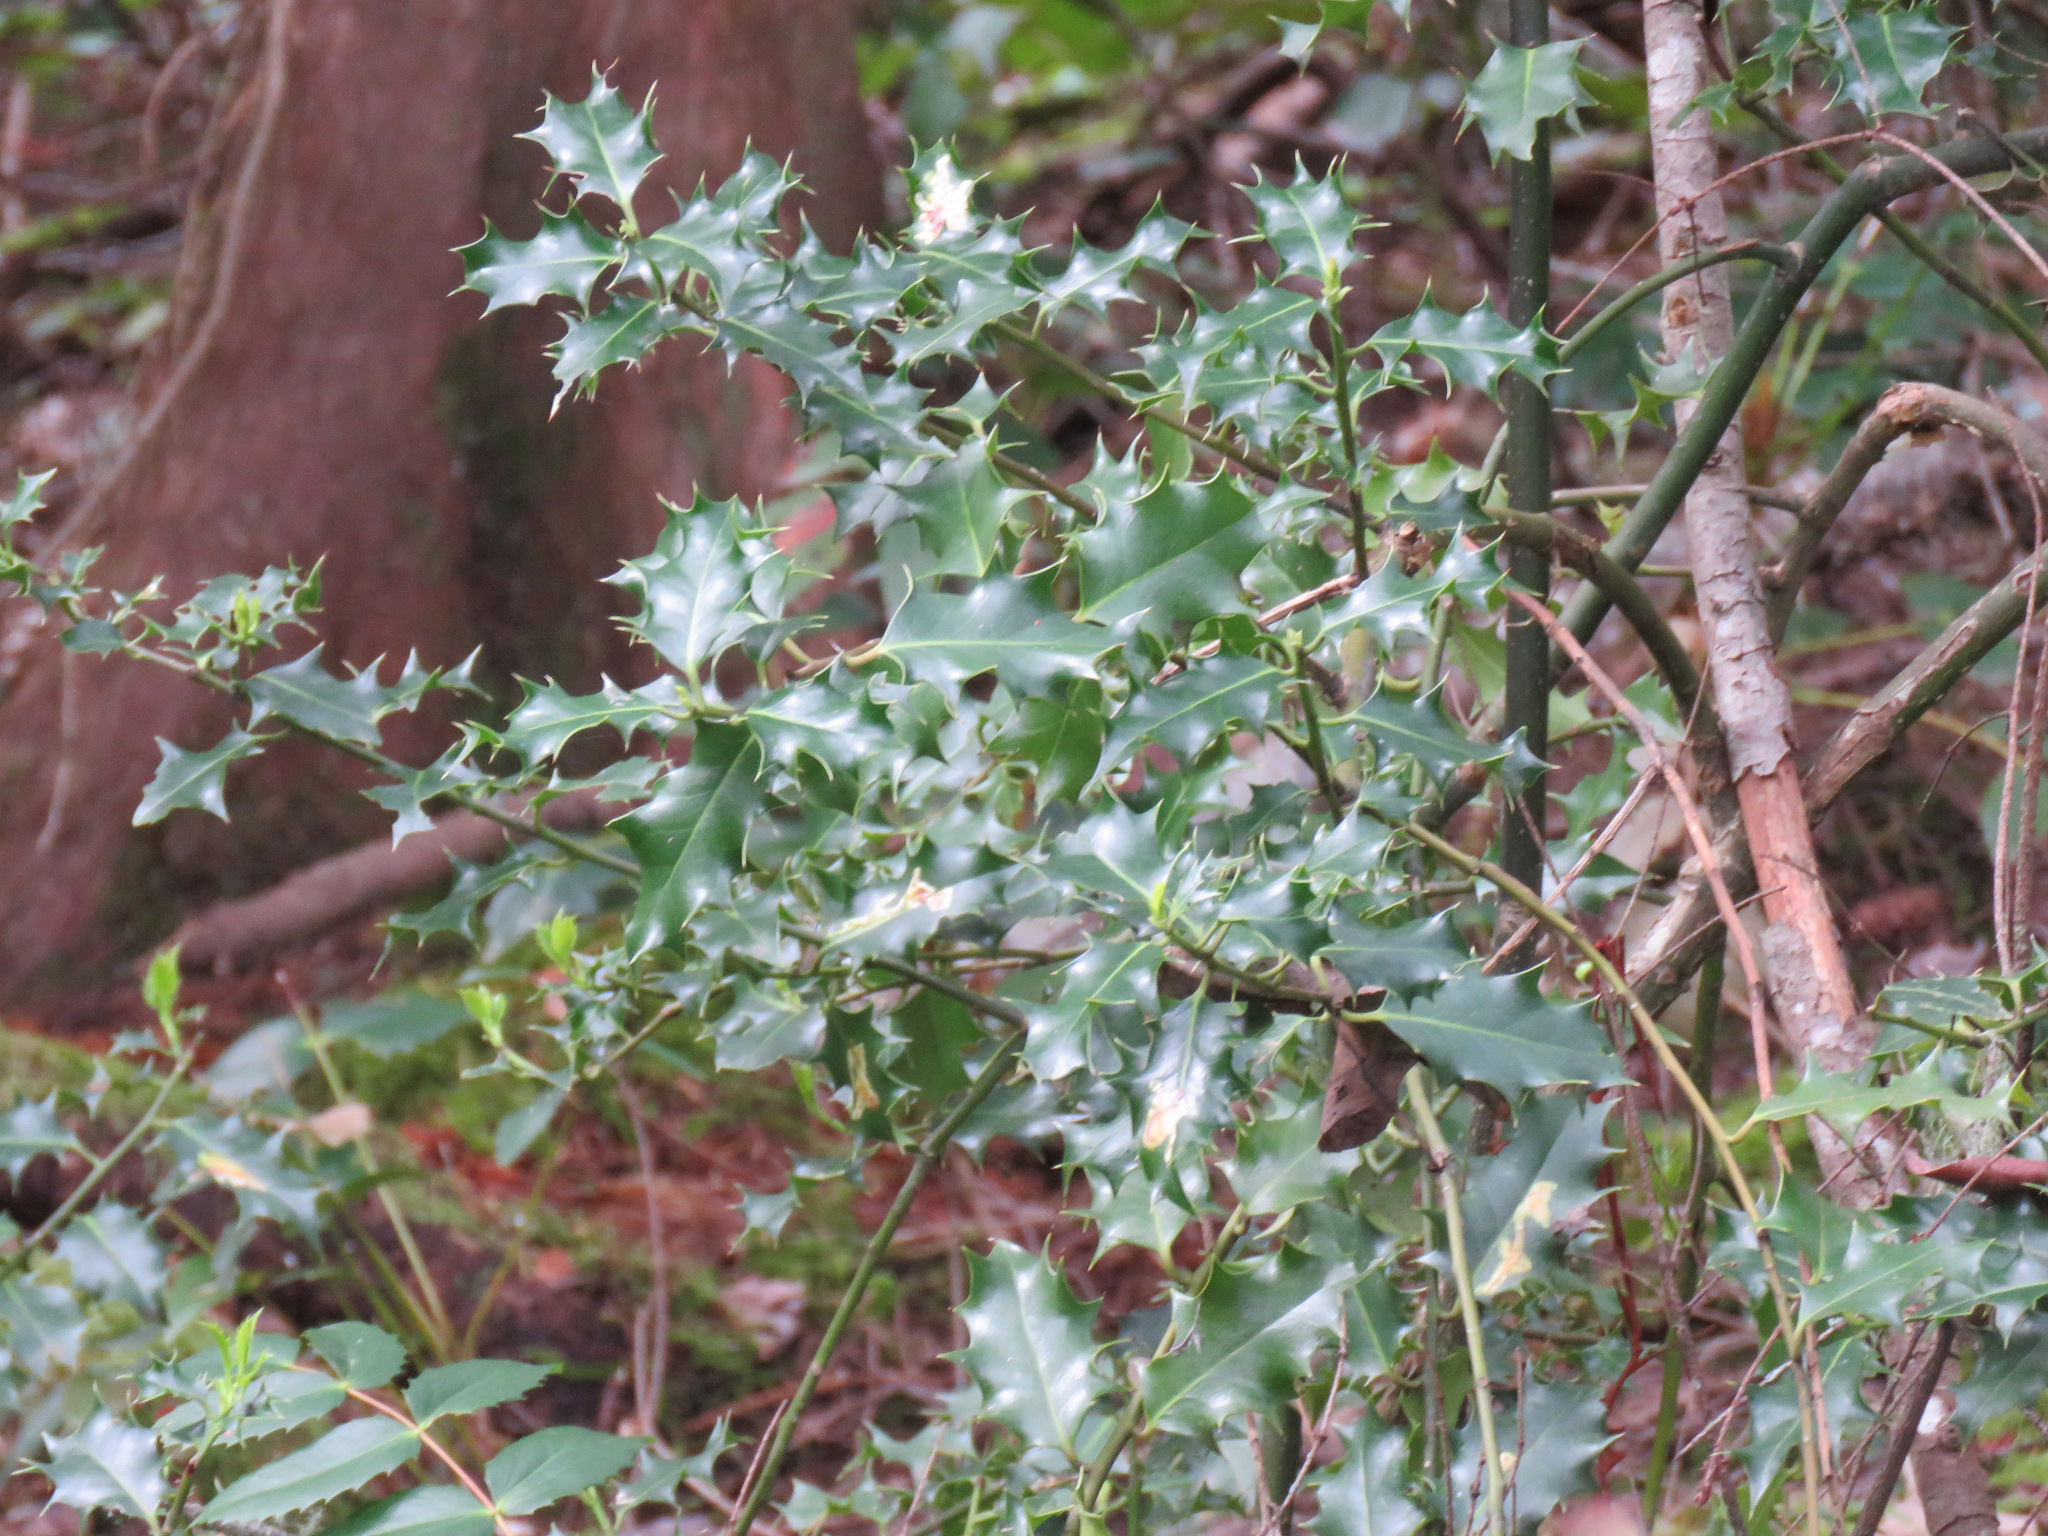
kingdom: Plantae
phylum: Tracheophyta
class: Magnoliopsida
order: Aquifoliales
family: Aquifoliaceae
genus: Ilex
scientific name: Ilex aquifolium
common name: English holly
